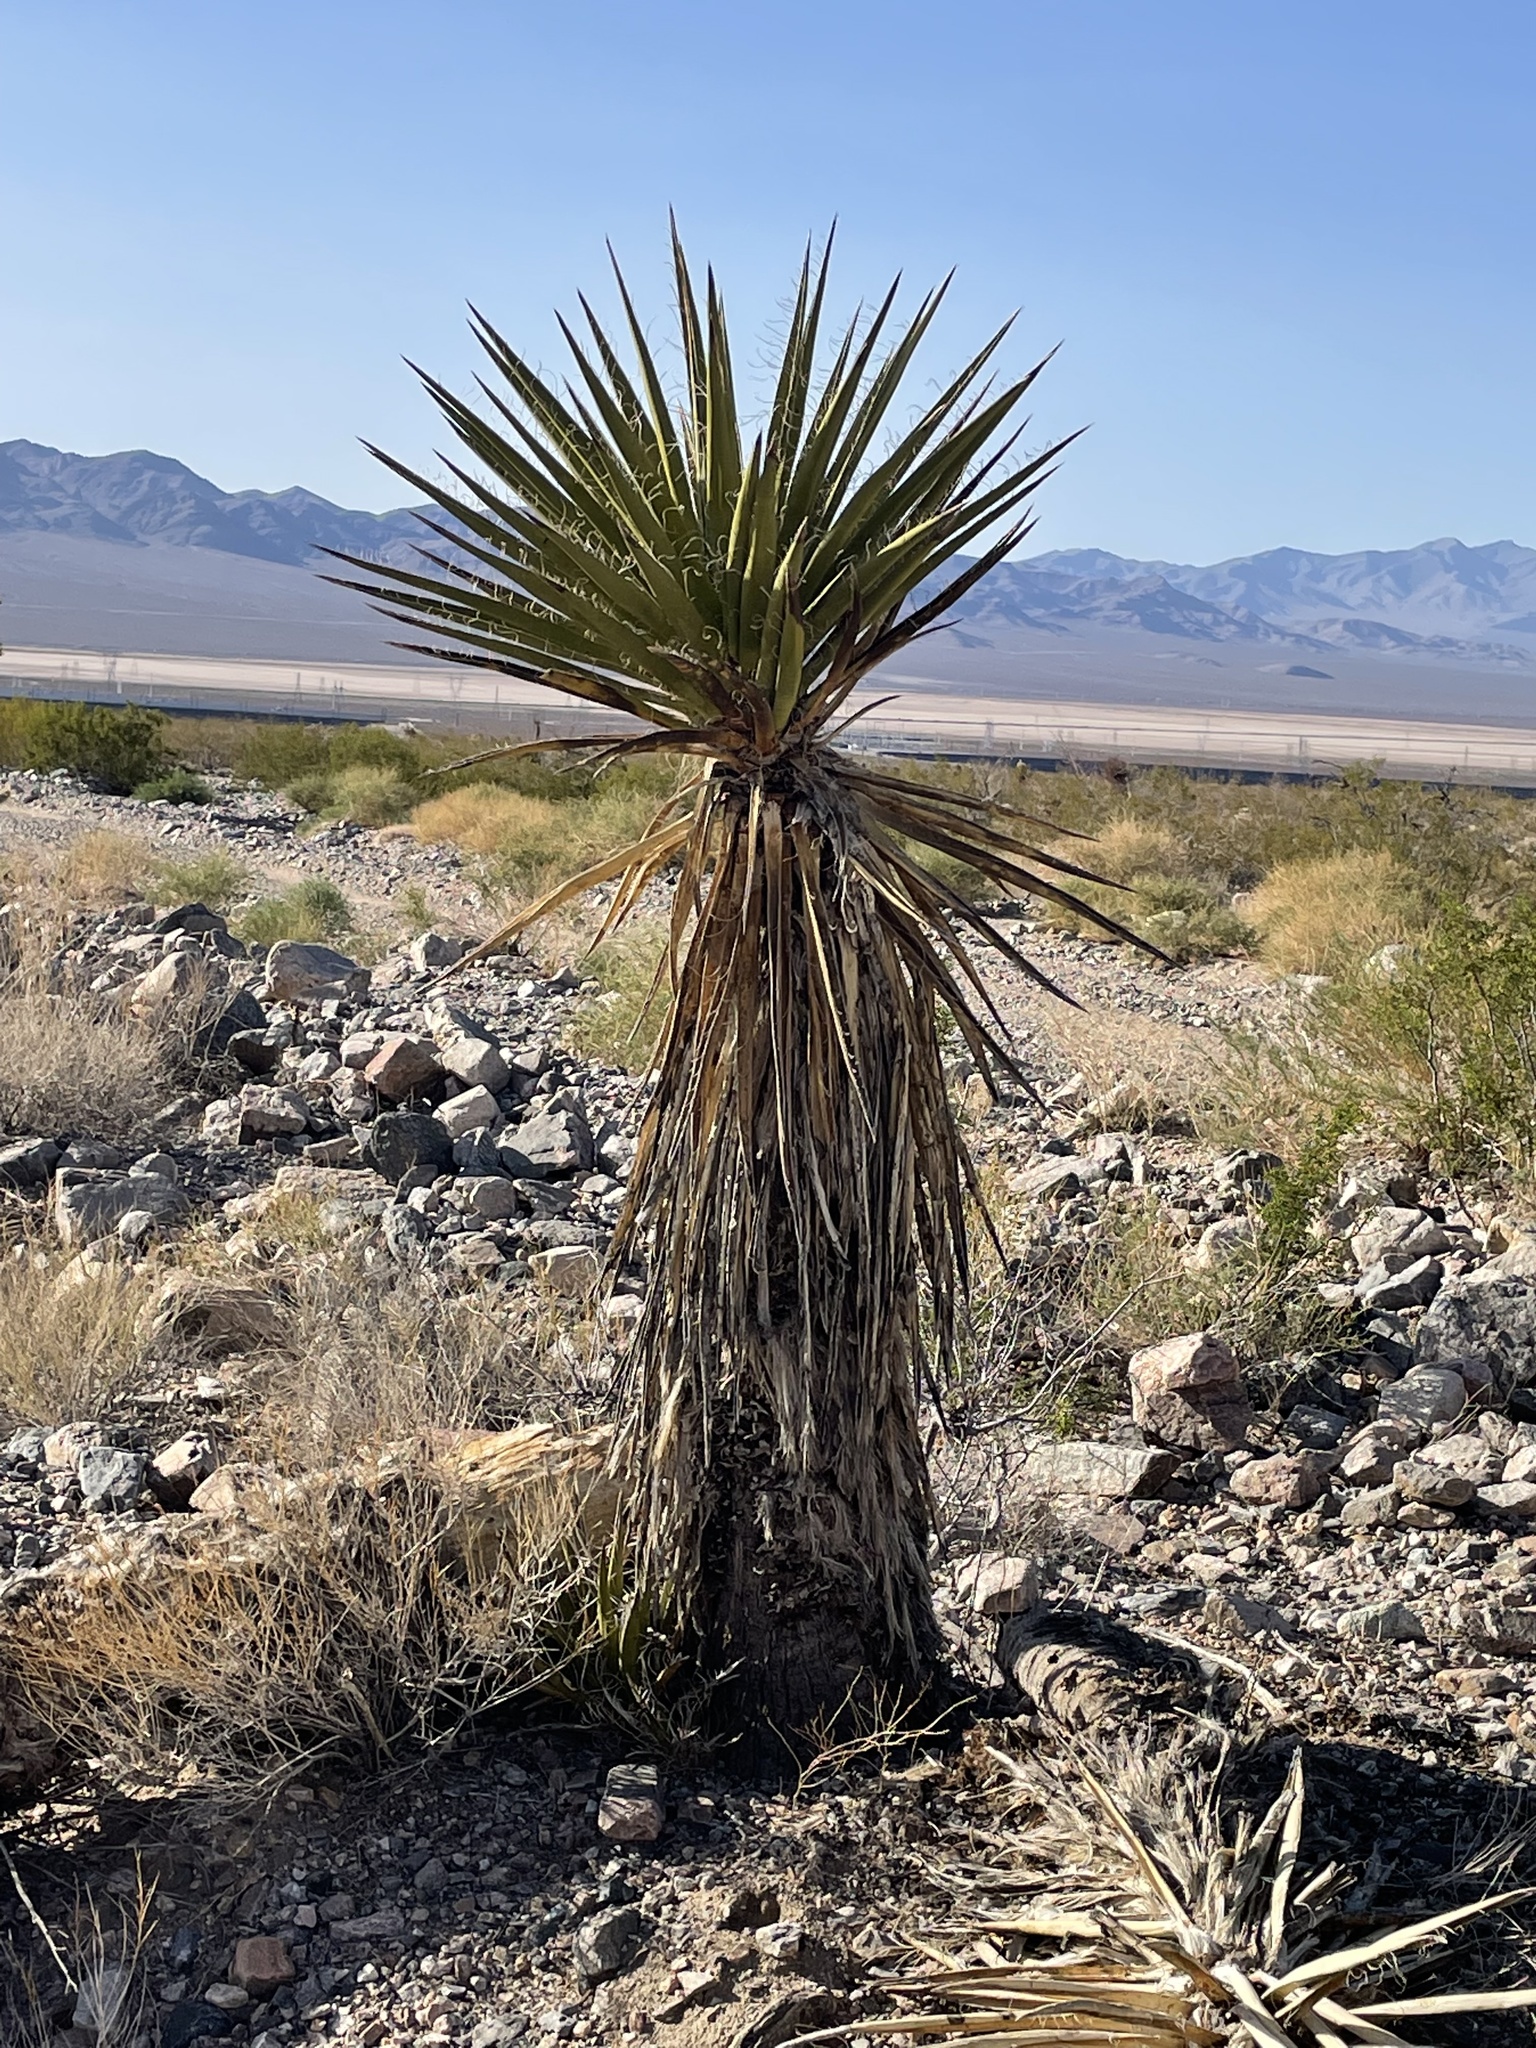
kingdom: Plantae
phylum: Tracheophyta
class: Liliopsida
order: Asparagales
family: Asparagaceae
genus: Yucca
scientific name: Yucca schidigera
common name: Mojave yucca
